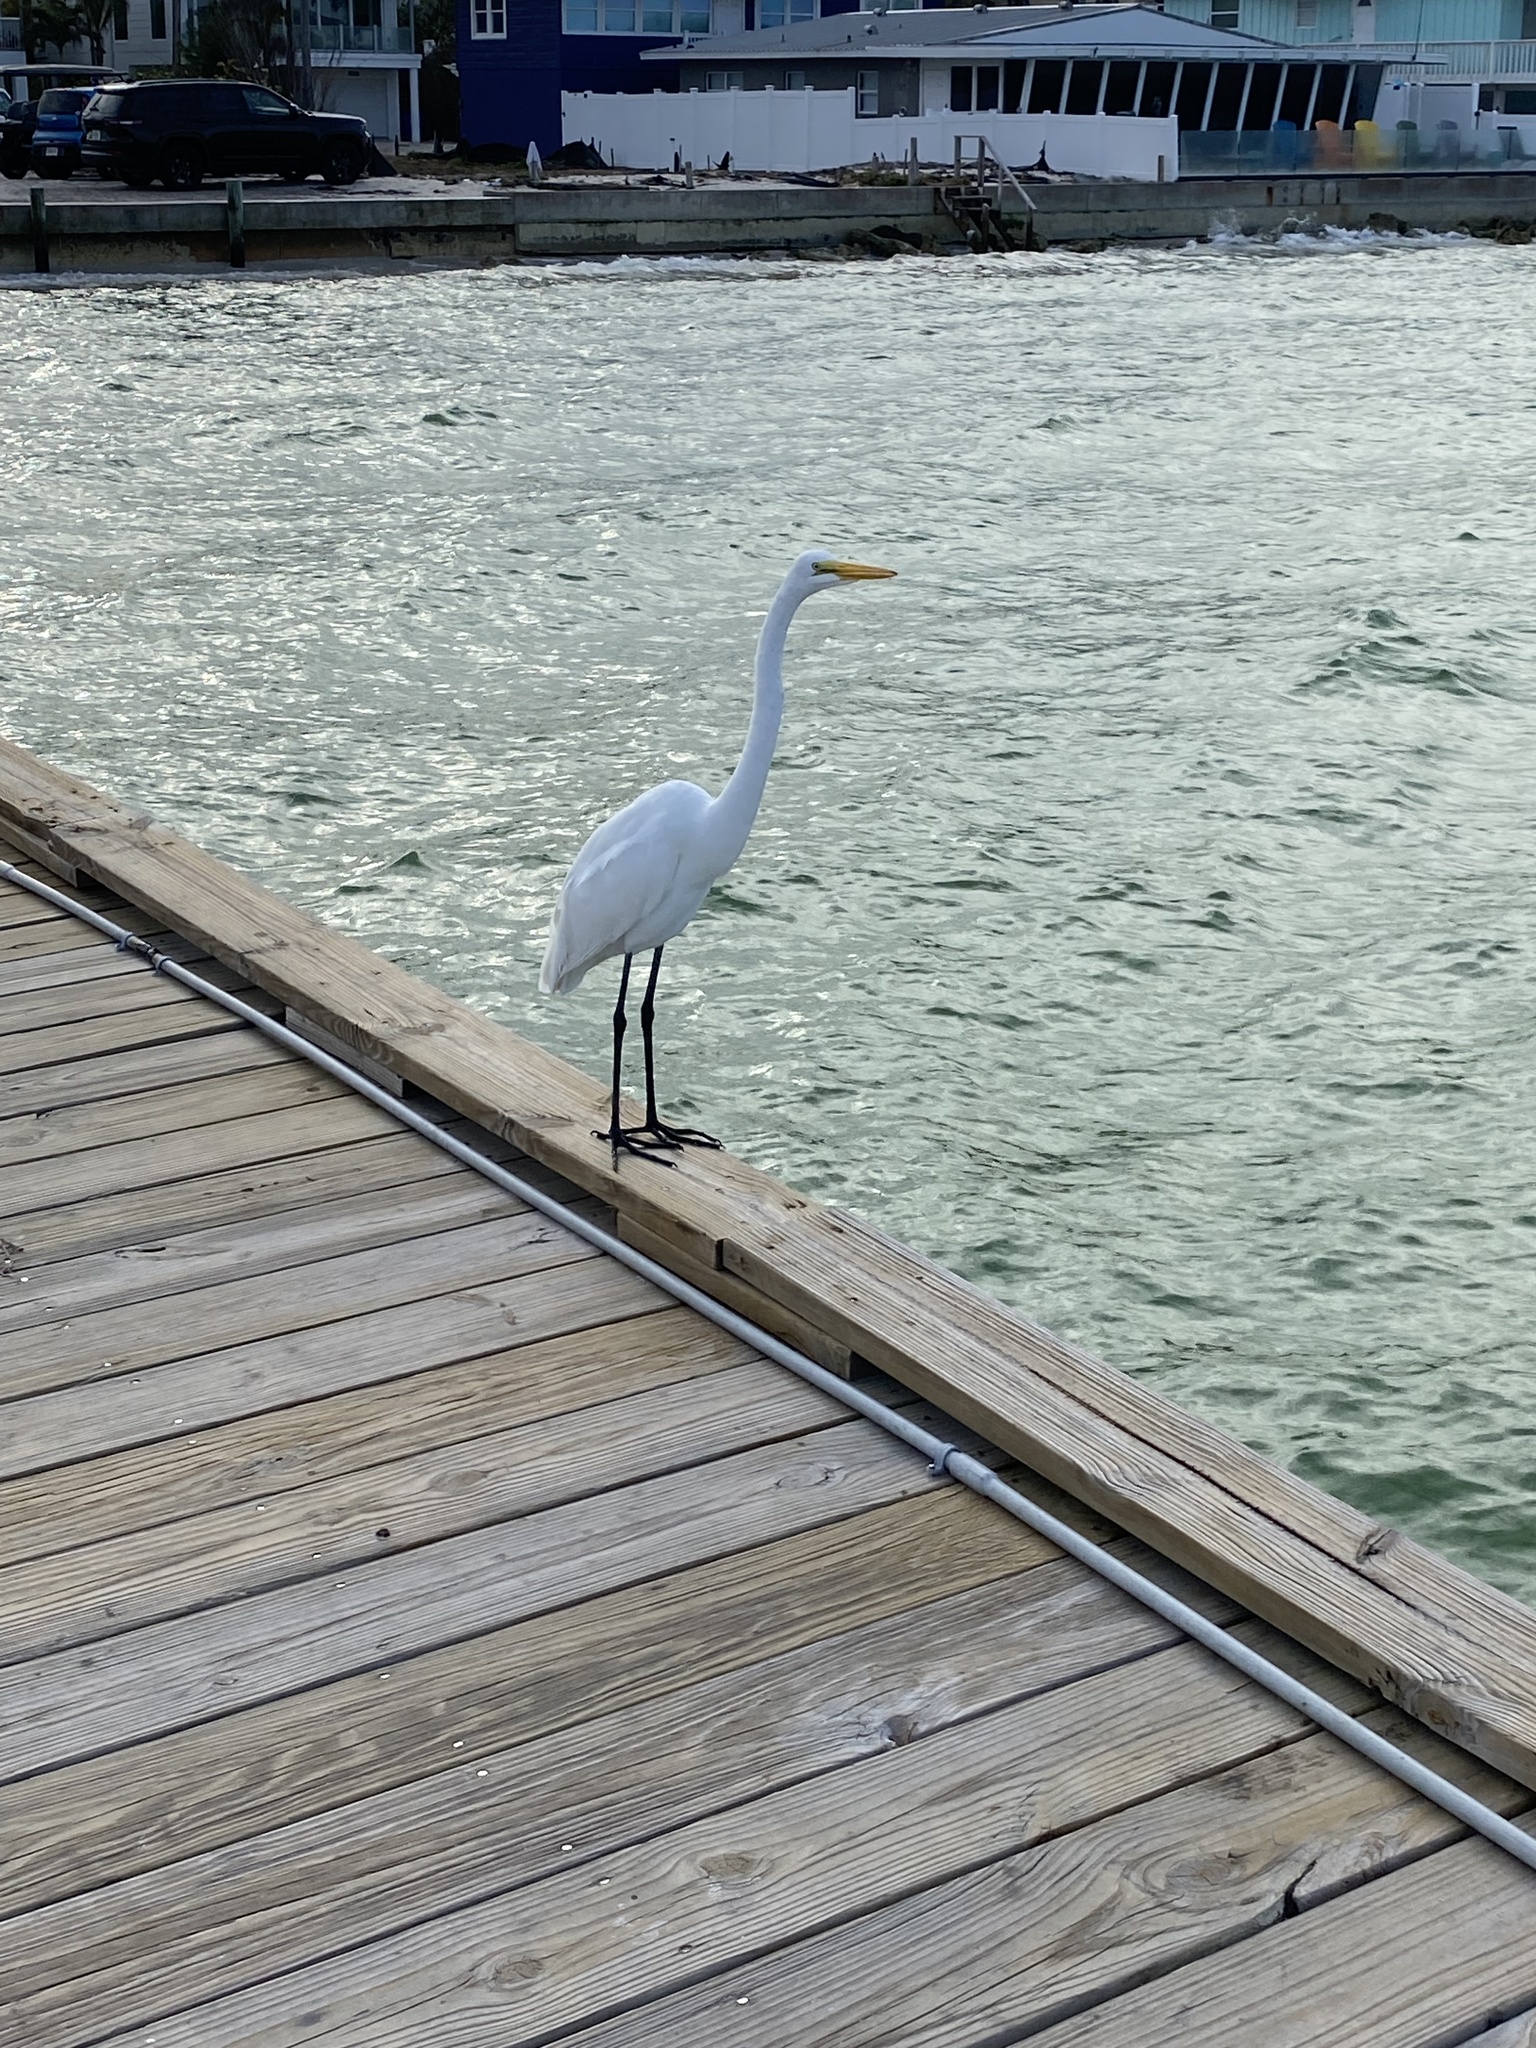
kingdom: Animalia
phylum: Chordata
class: Aves
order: Pelecaniformes
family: Ardeidae
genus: Ardea
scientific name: Ardea alba
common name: Great egret
